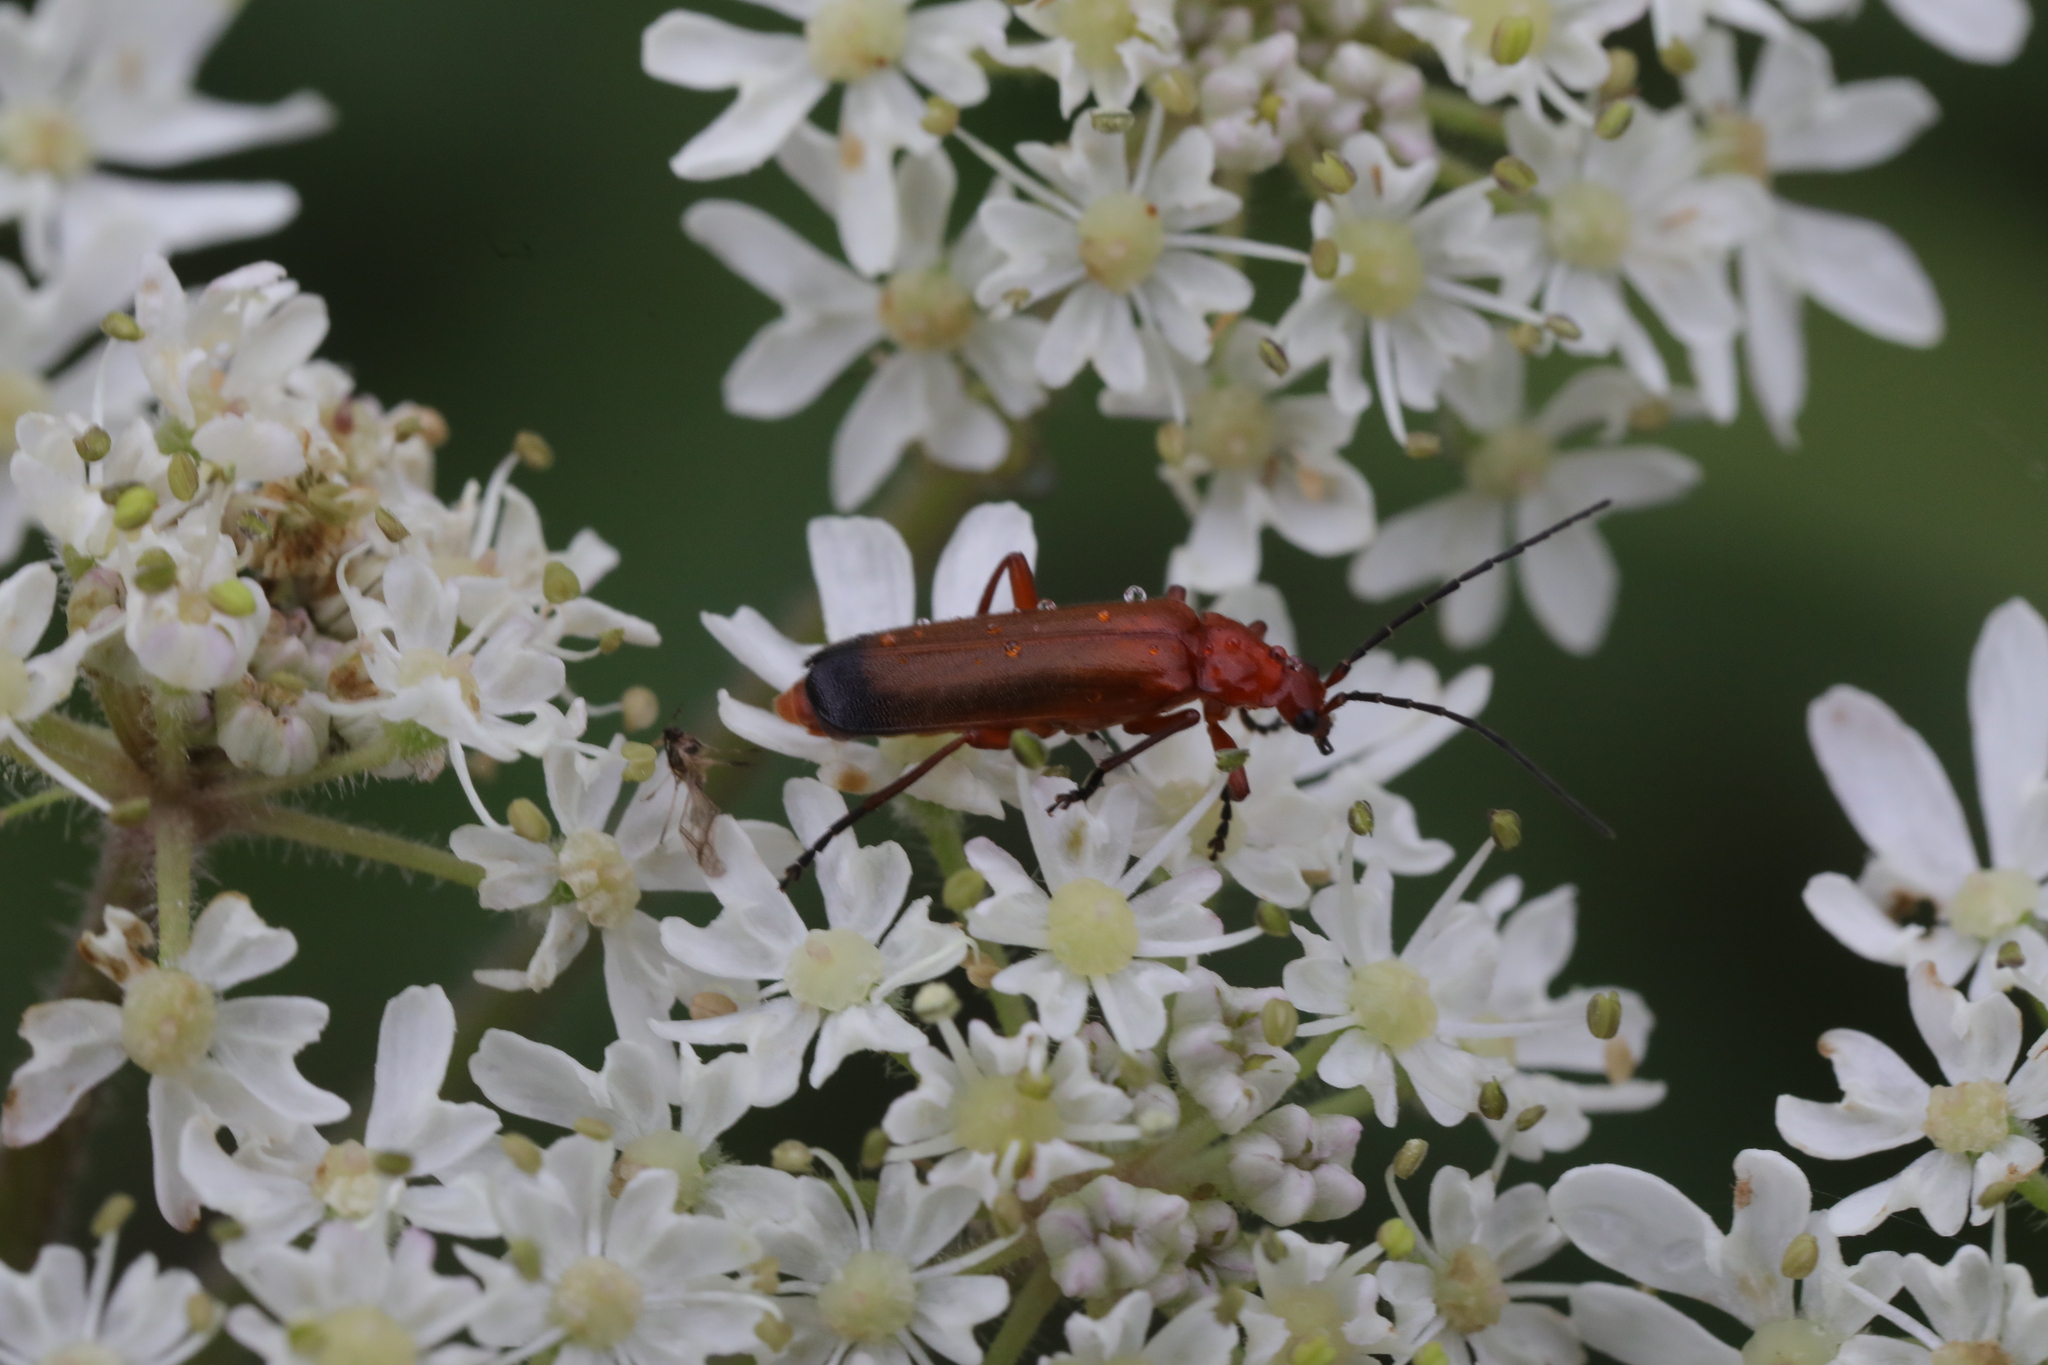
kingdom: Animalia
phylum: Arthropoda
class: Insecta
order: Coleoptera
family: Cantharidae
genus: Rhagonycha
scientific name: Rhagonycha fulva
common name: Common red soldier beetle
